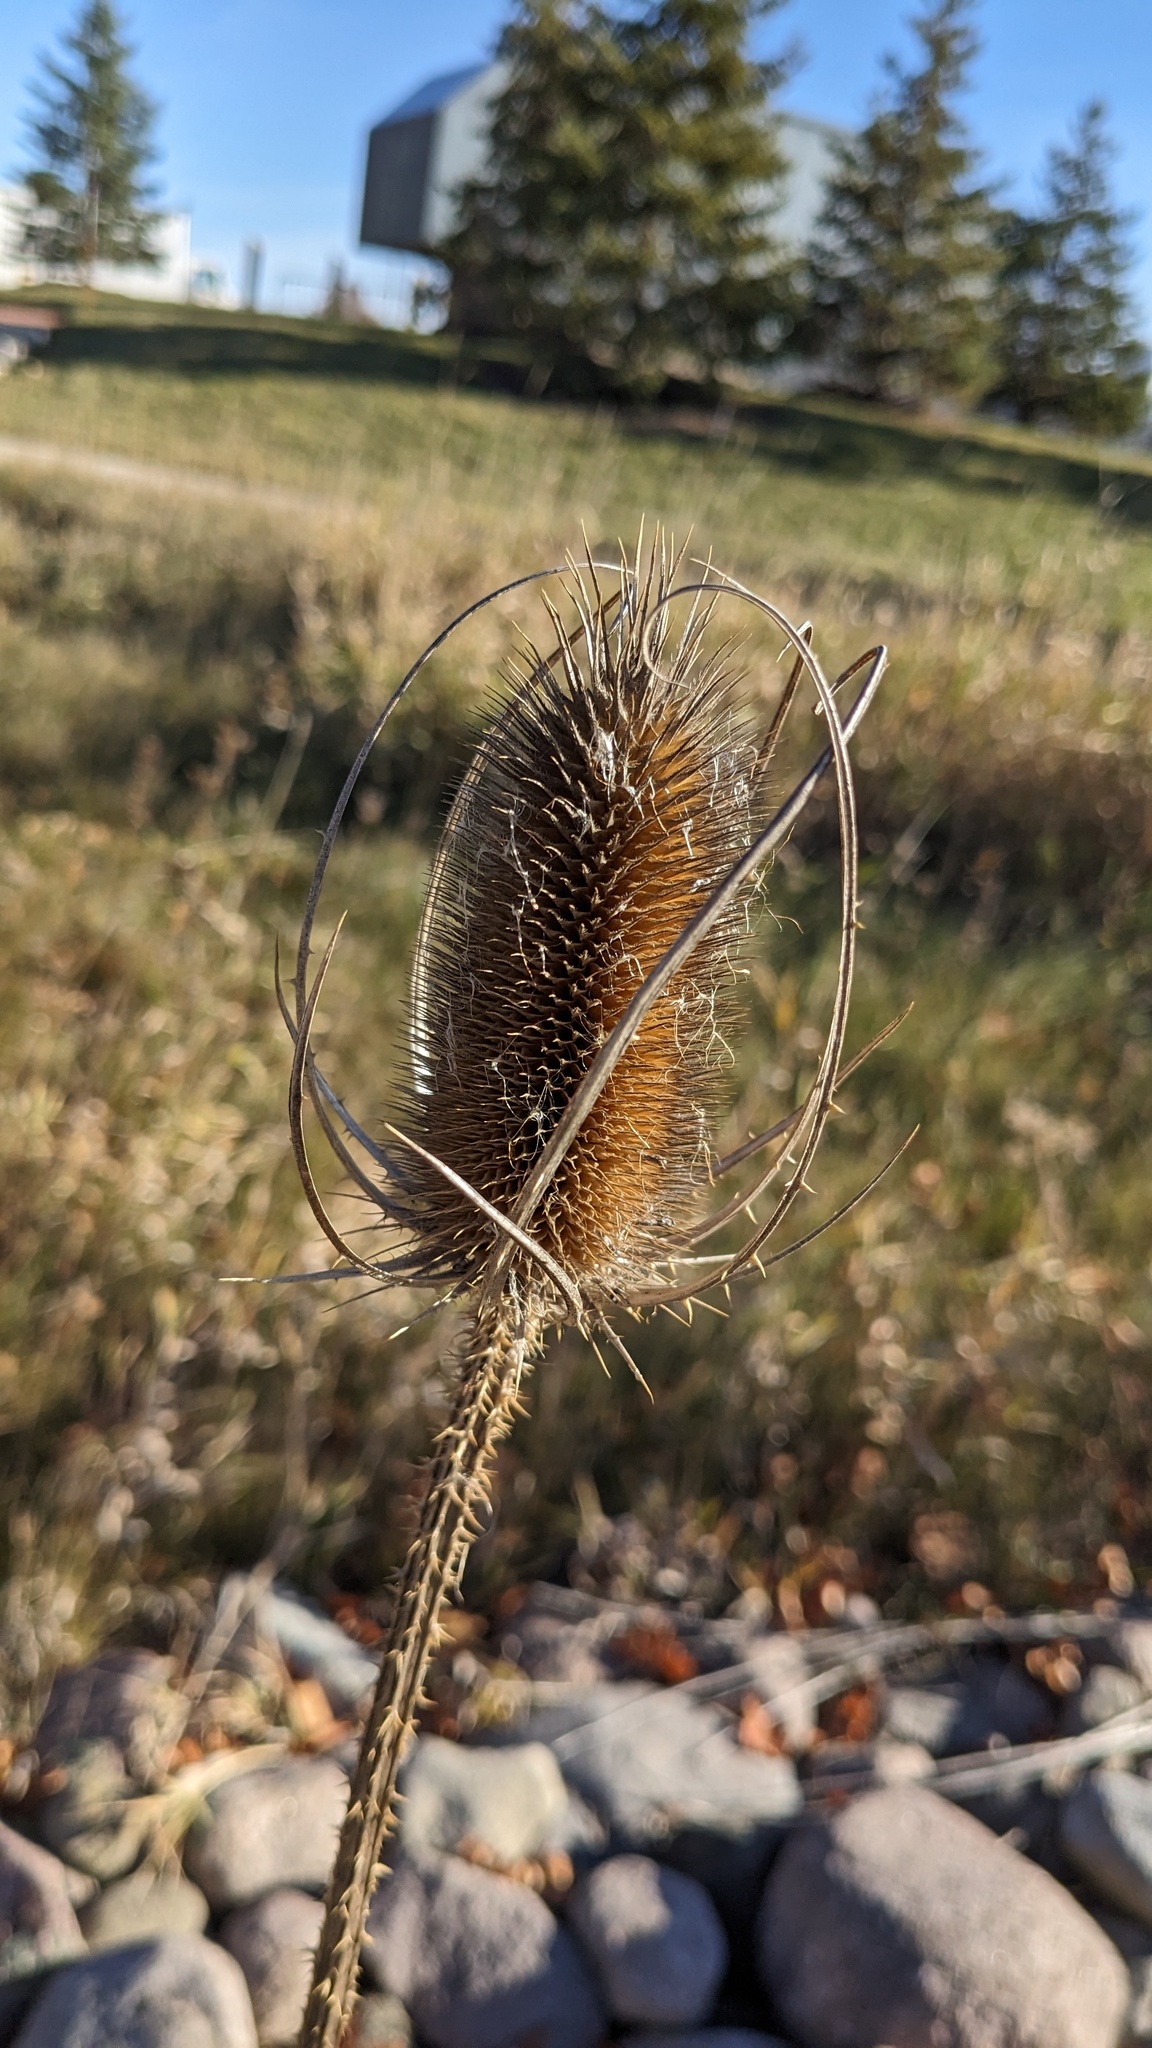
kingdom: Plantae
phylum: Tracheophyta
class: Magnoliopsida
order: Dipsacales
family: Caprifoliaceae
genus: Dipsacus
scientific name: Dipsacus fullonum
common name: Teasel
